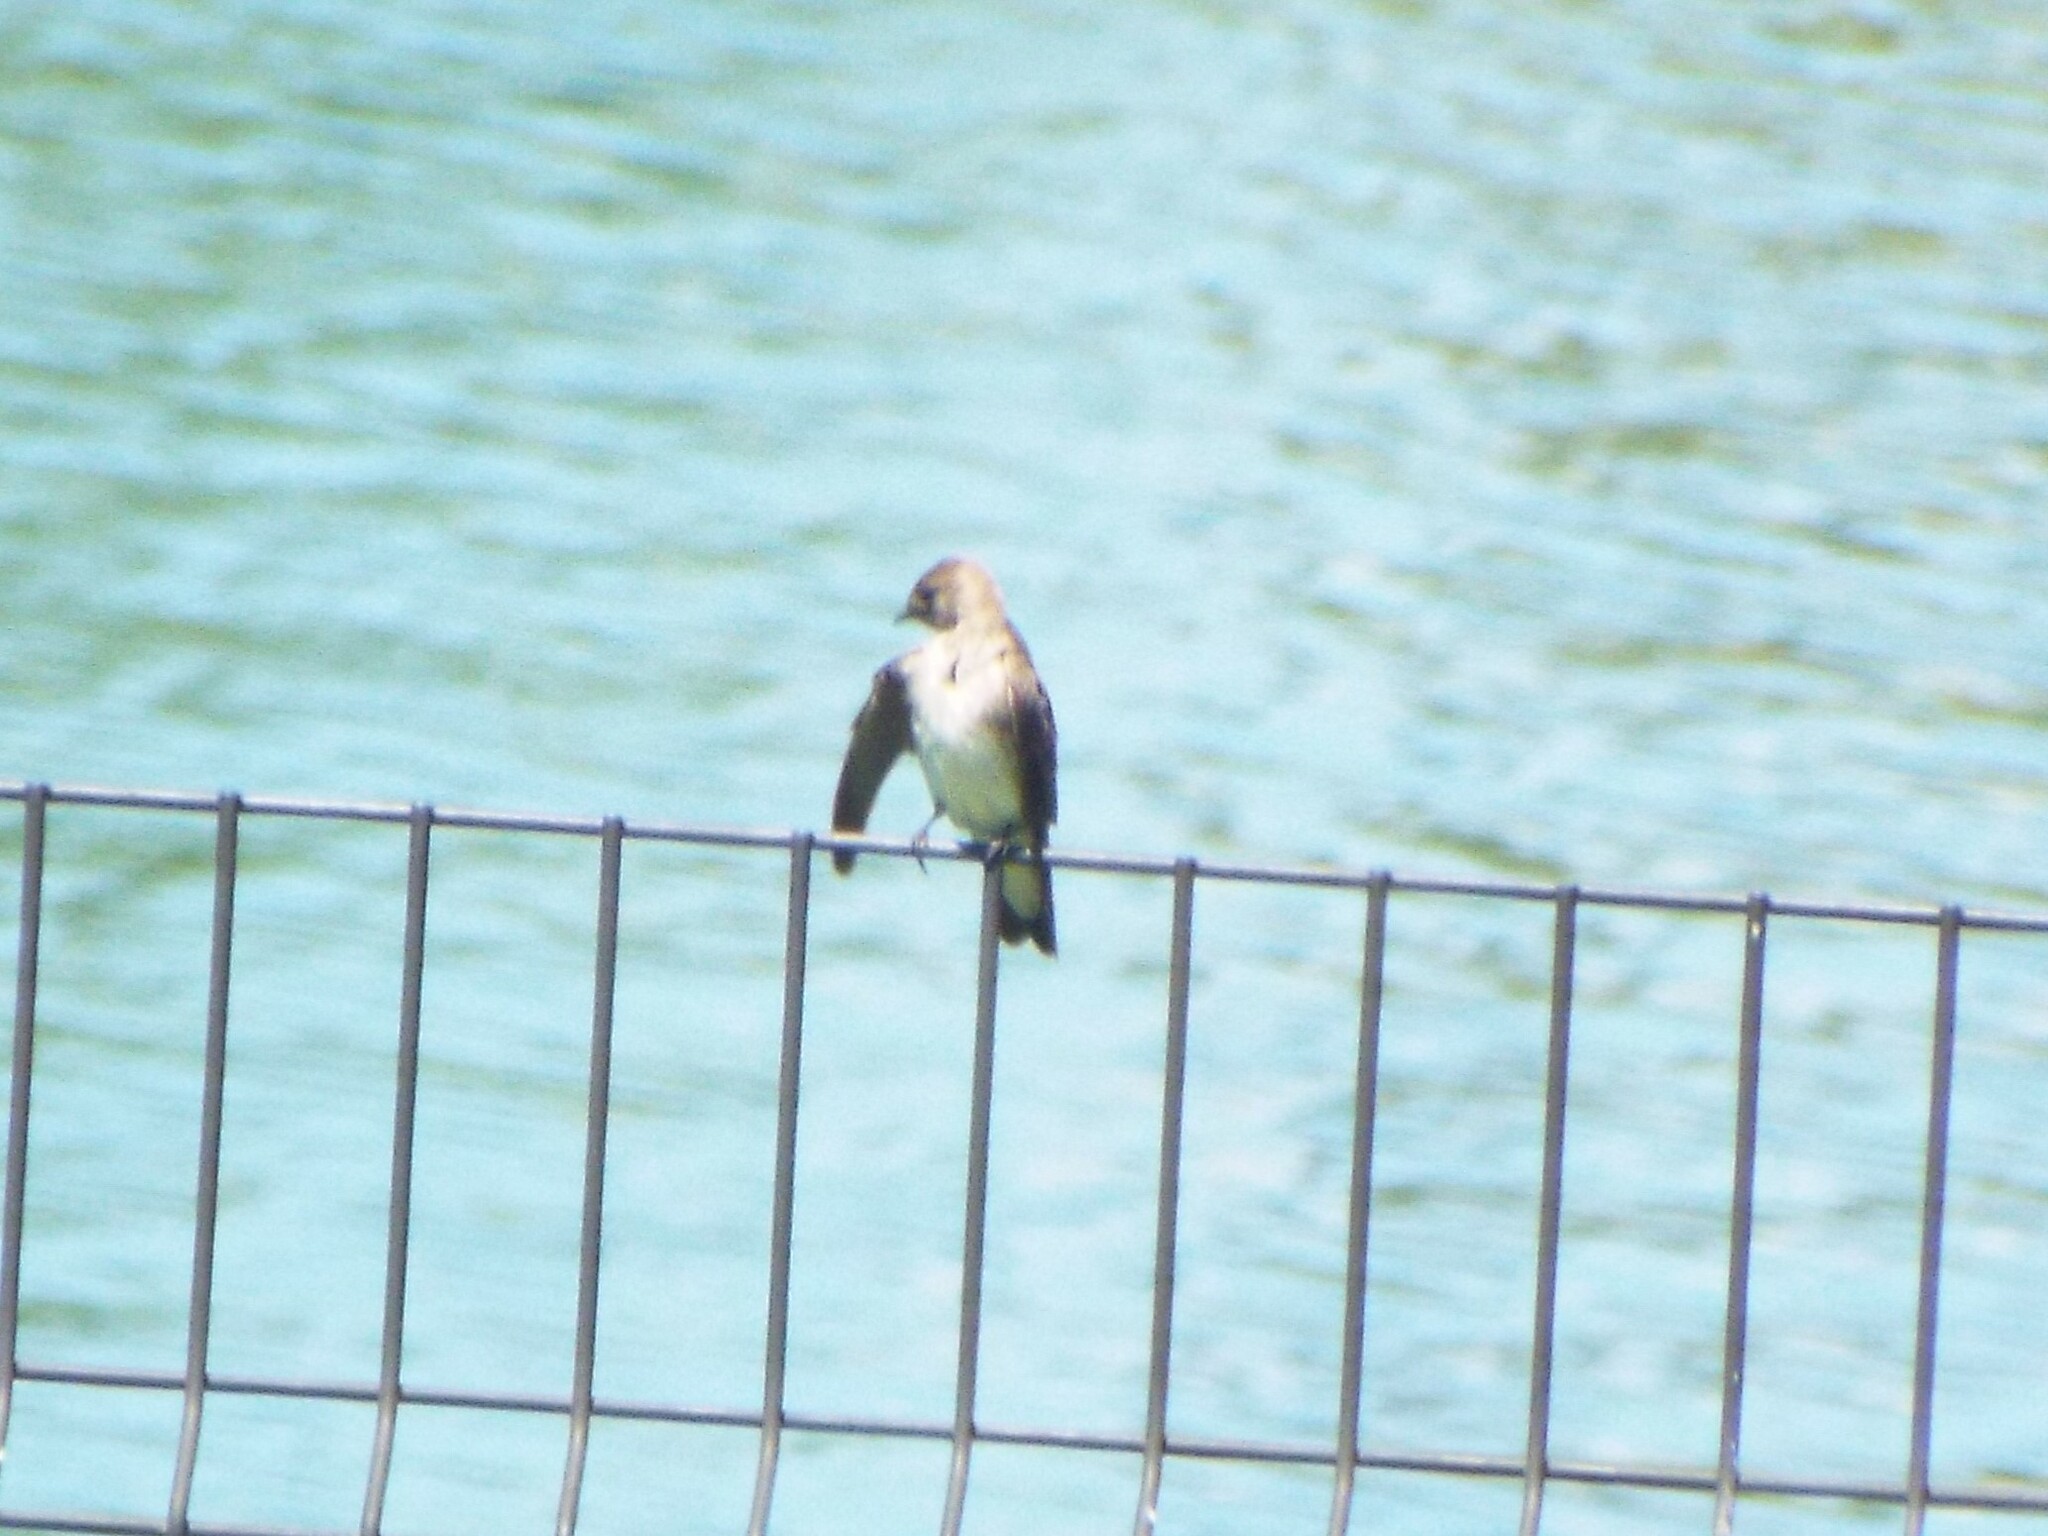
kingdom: Animalia
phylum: Chordata
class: Aves
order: Passeriformes
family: Hirundinidae
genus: Stelgidopteryx
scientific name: Stelgidopteryx serripennis
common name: Northern rough-winged swallow
